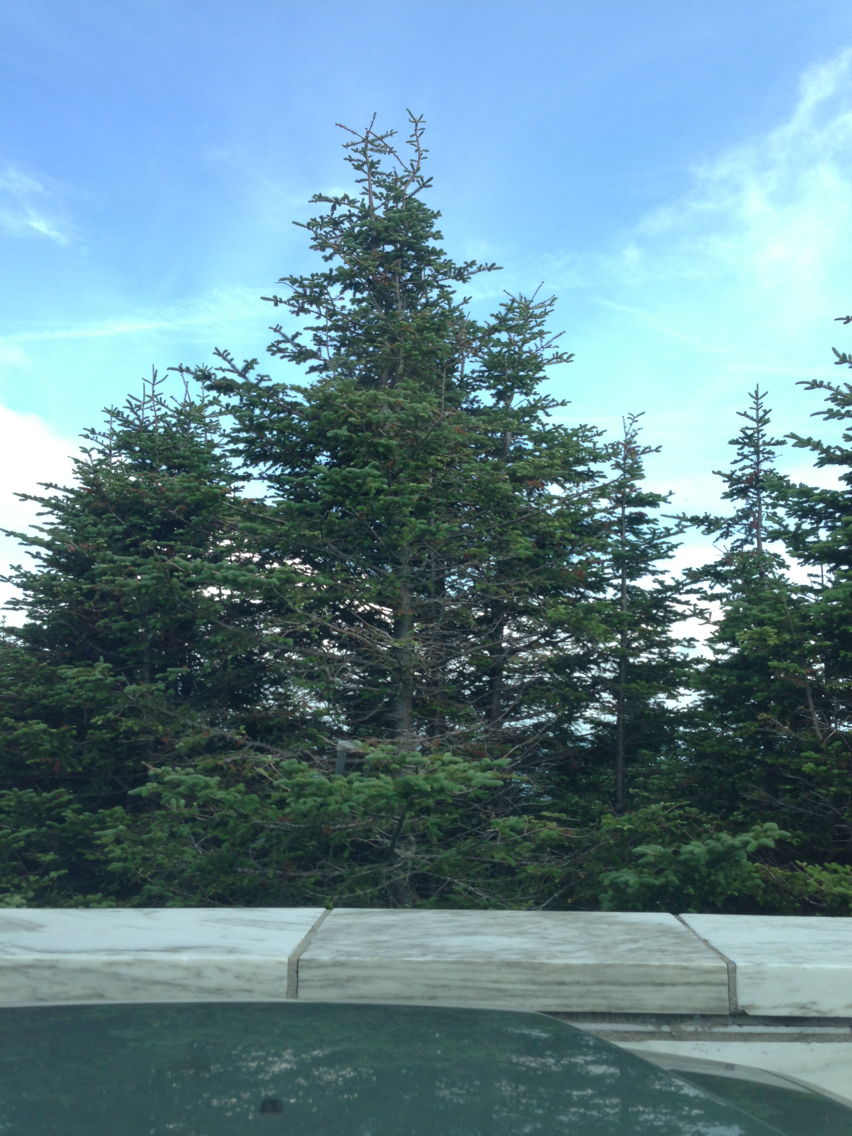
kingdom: Plantae
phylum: Tracheophyta
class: Pinopsida
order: Pinales
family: Pinaceae
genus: Abies
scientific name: Abies balsamea
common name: Balsam fir
